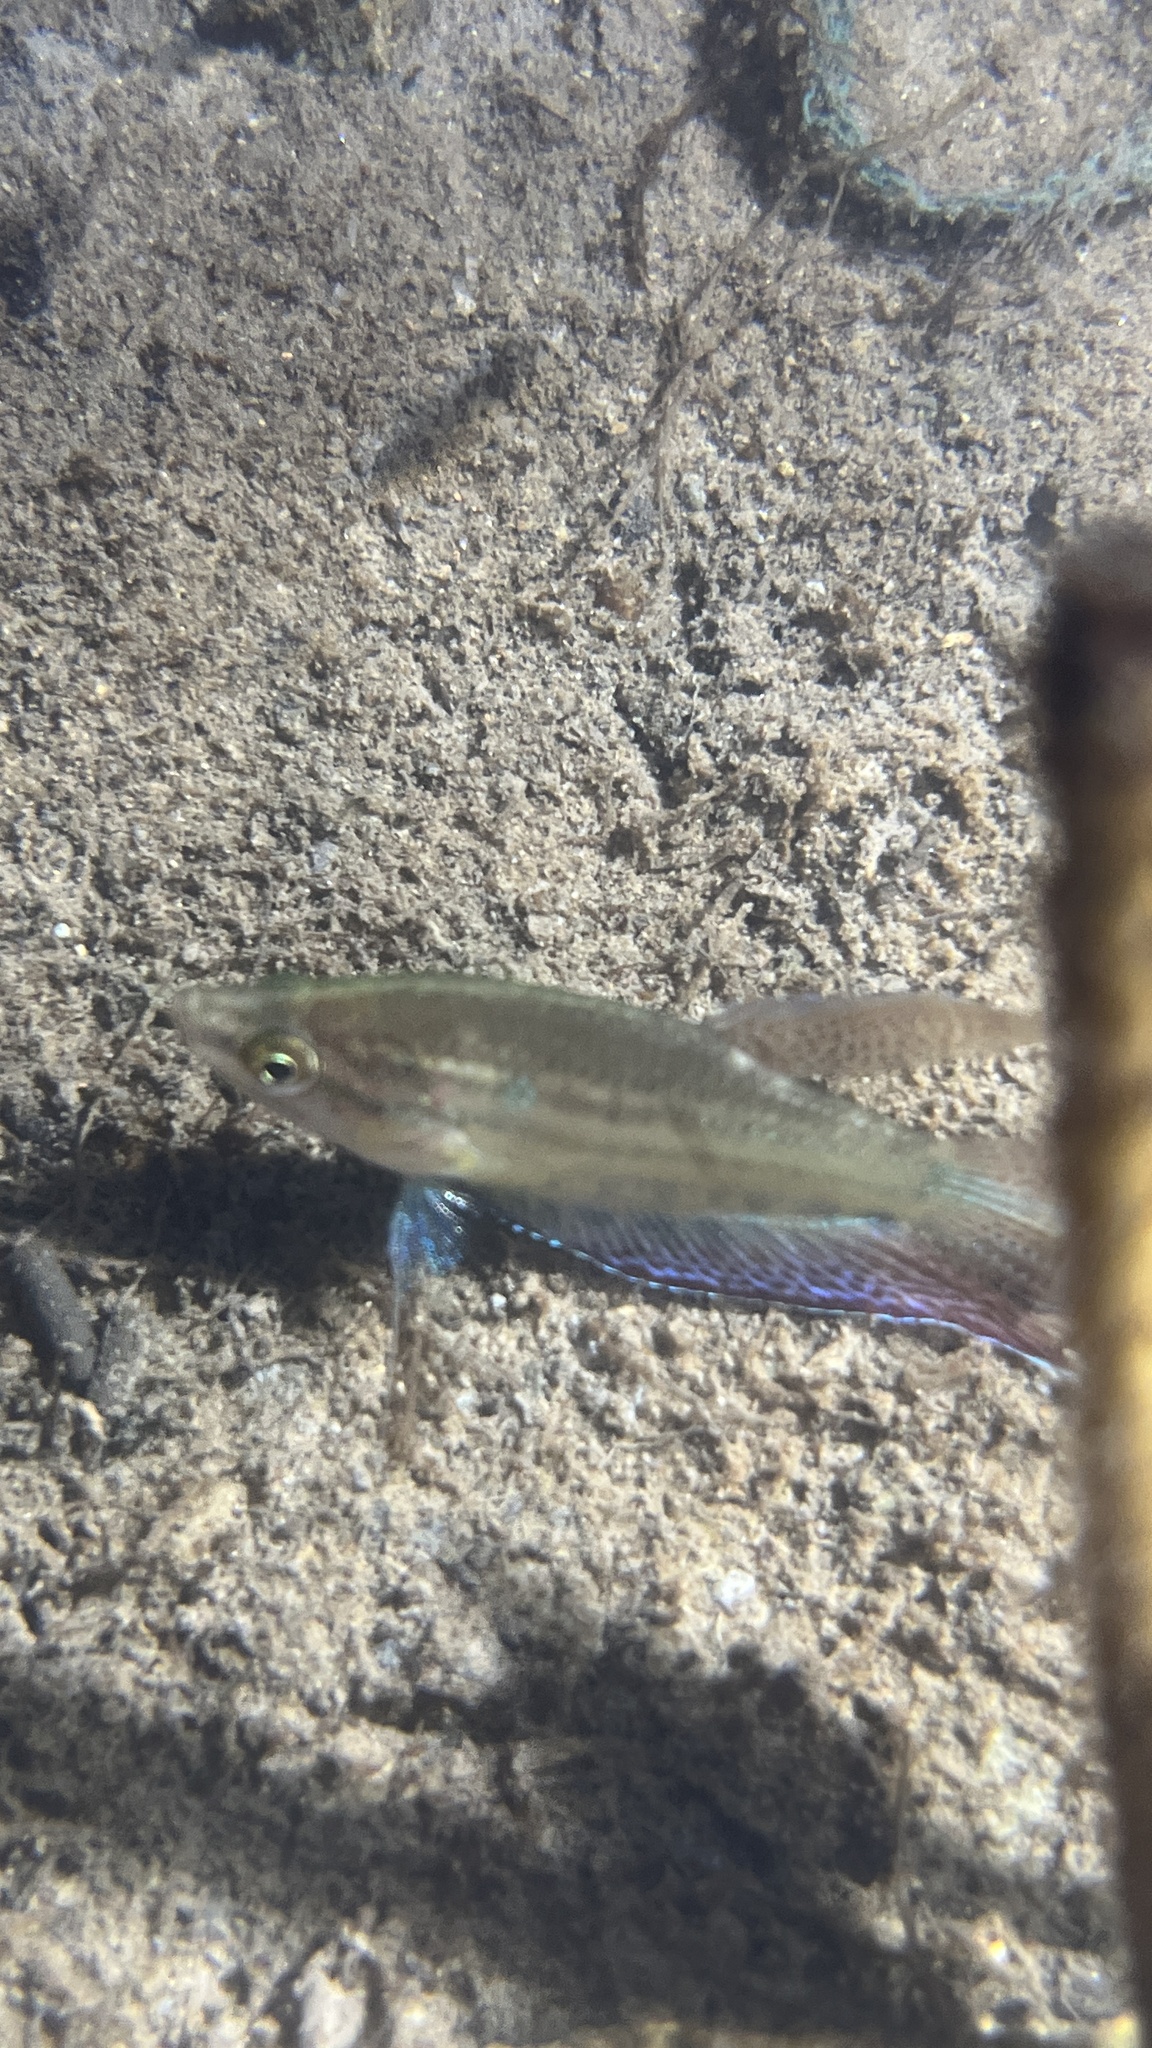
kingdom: Animalia
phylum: Chordata
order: Perciformes
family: Osphronemidae
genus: Trichopsis
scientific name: Trichopsis vittata
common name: Croaking gourami
